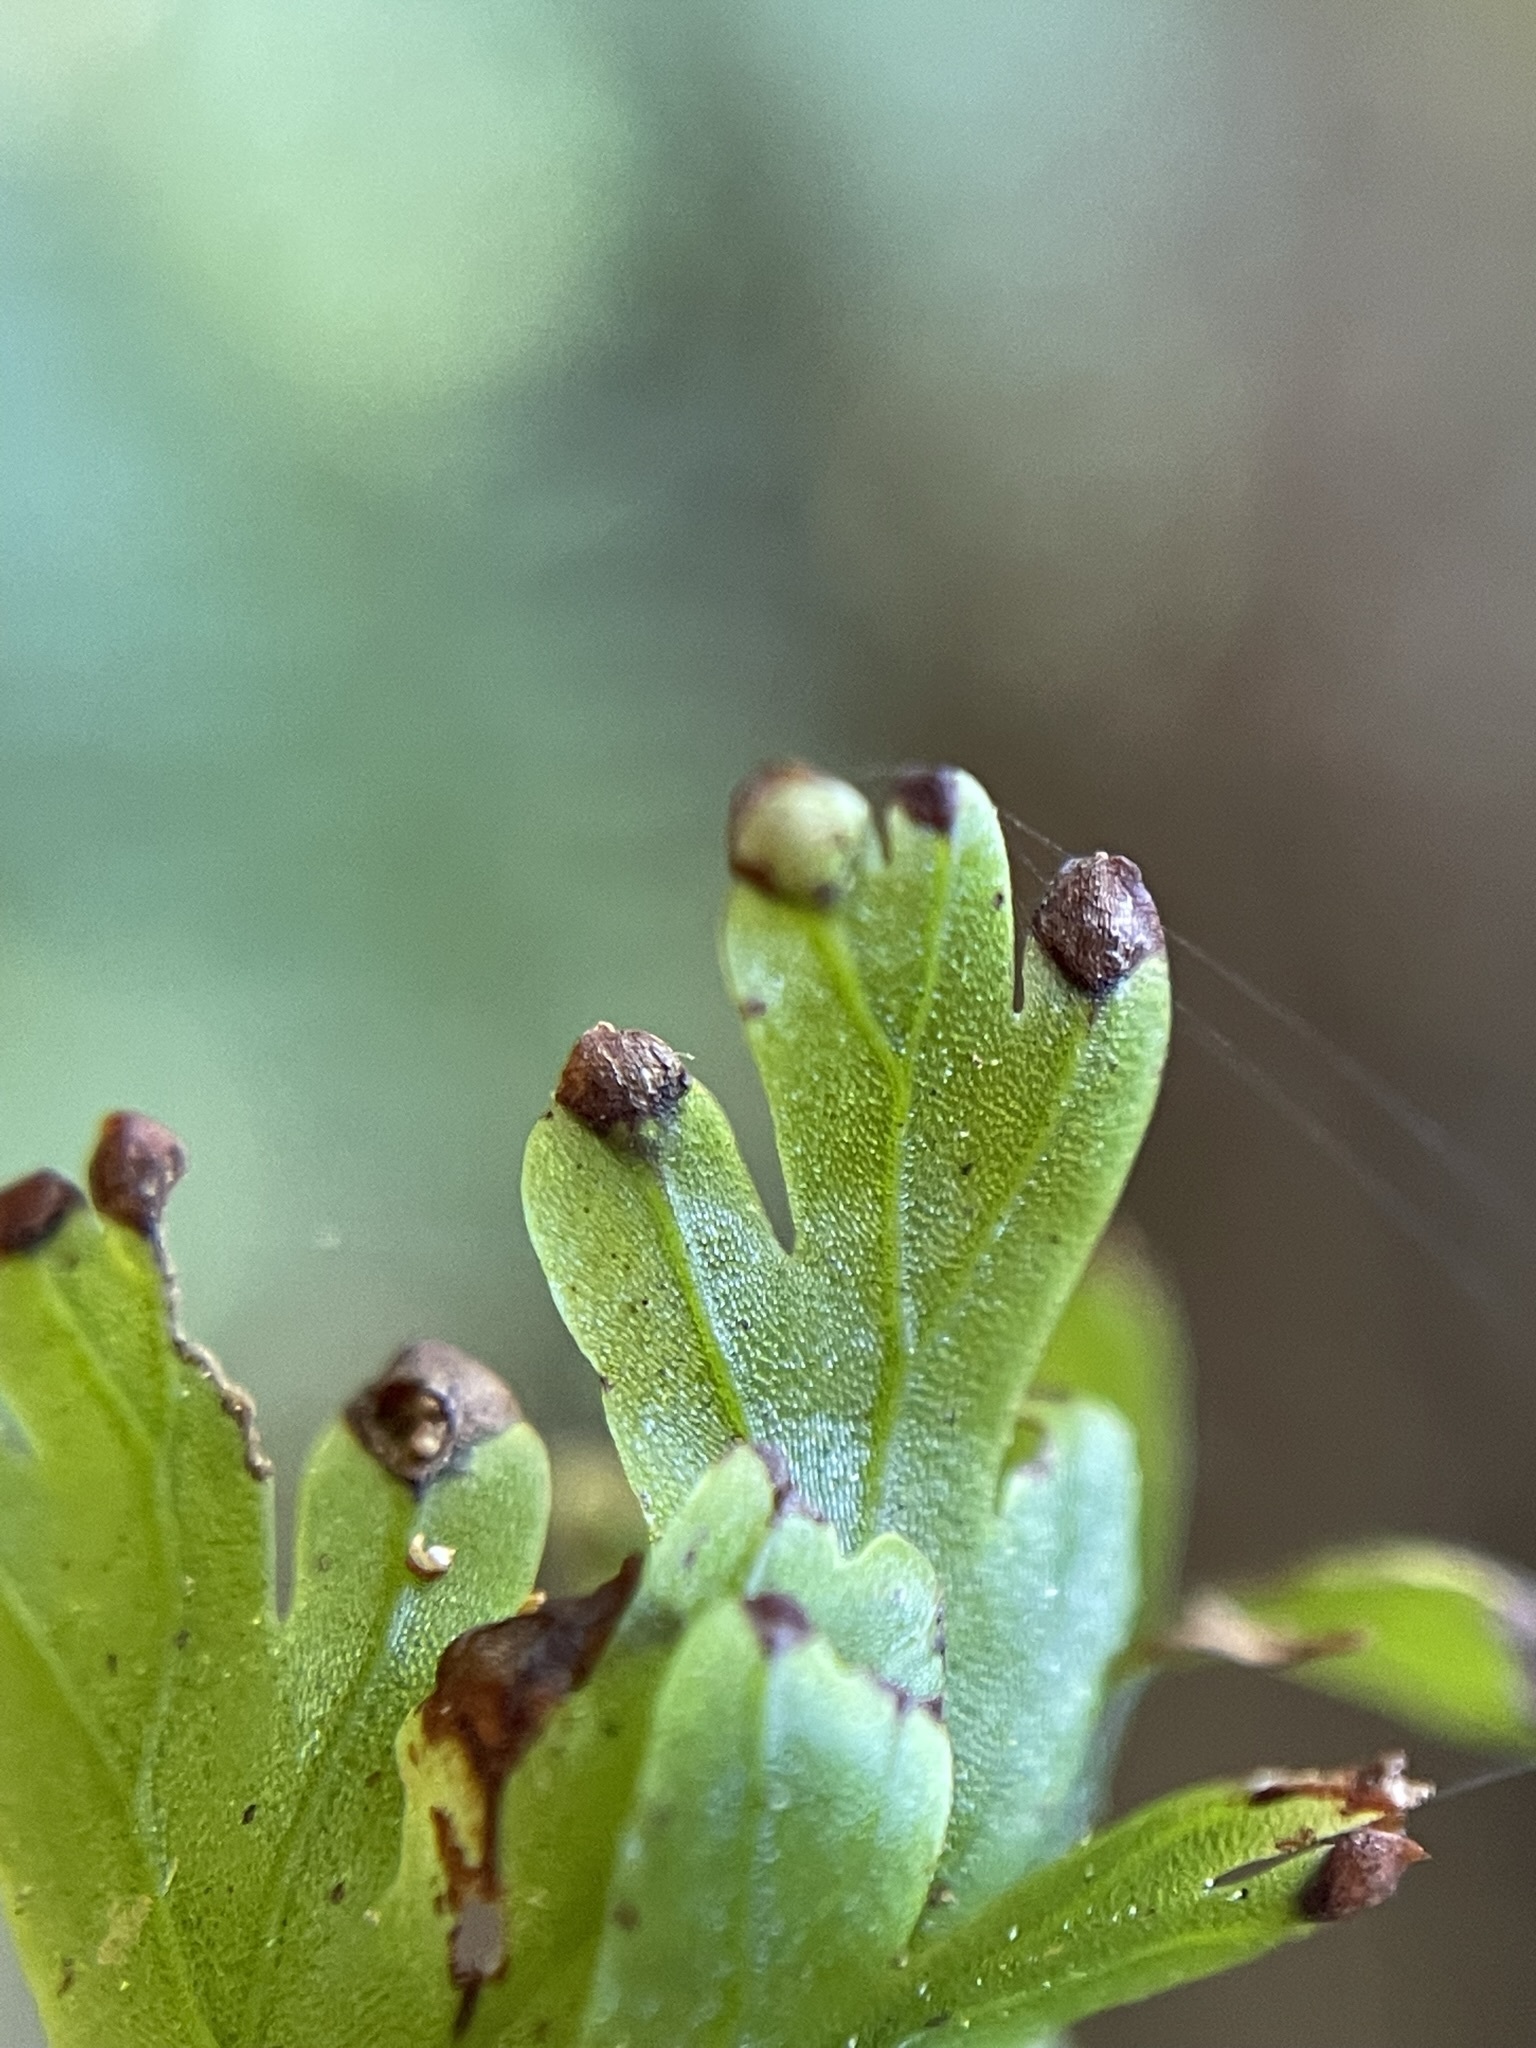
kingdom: Plantae
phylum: Tracheophyta
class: Polypodiopsida
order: Hymenophyllales
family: Hymenophyllaceae
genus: Hymenophyllum
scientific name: Hymenophyllum flabellatum
